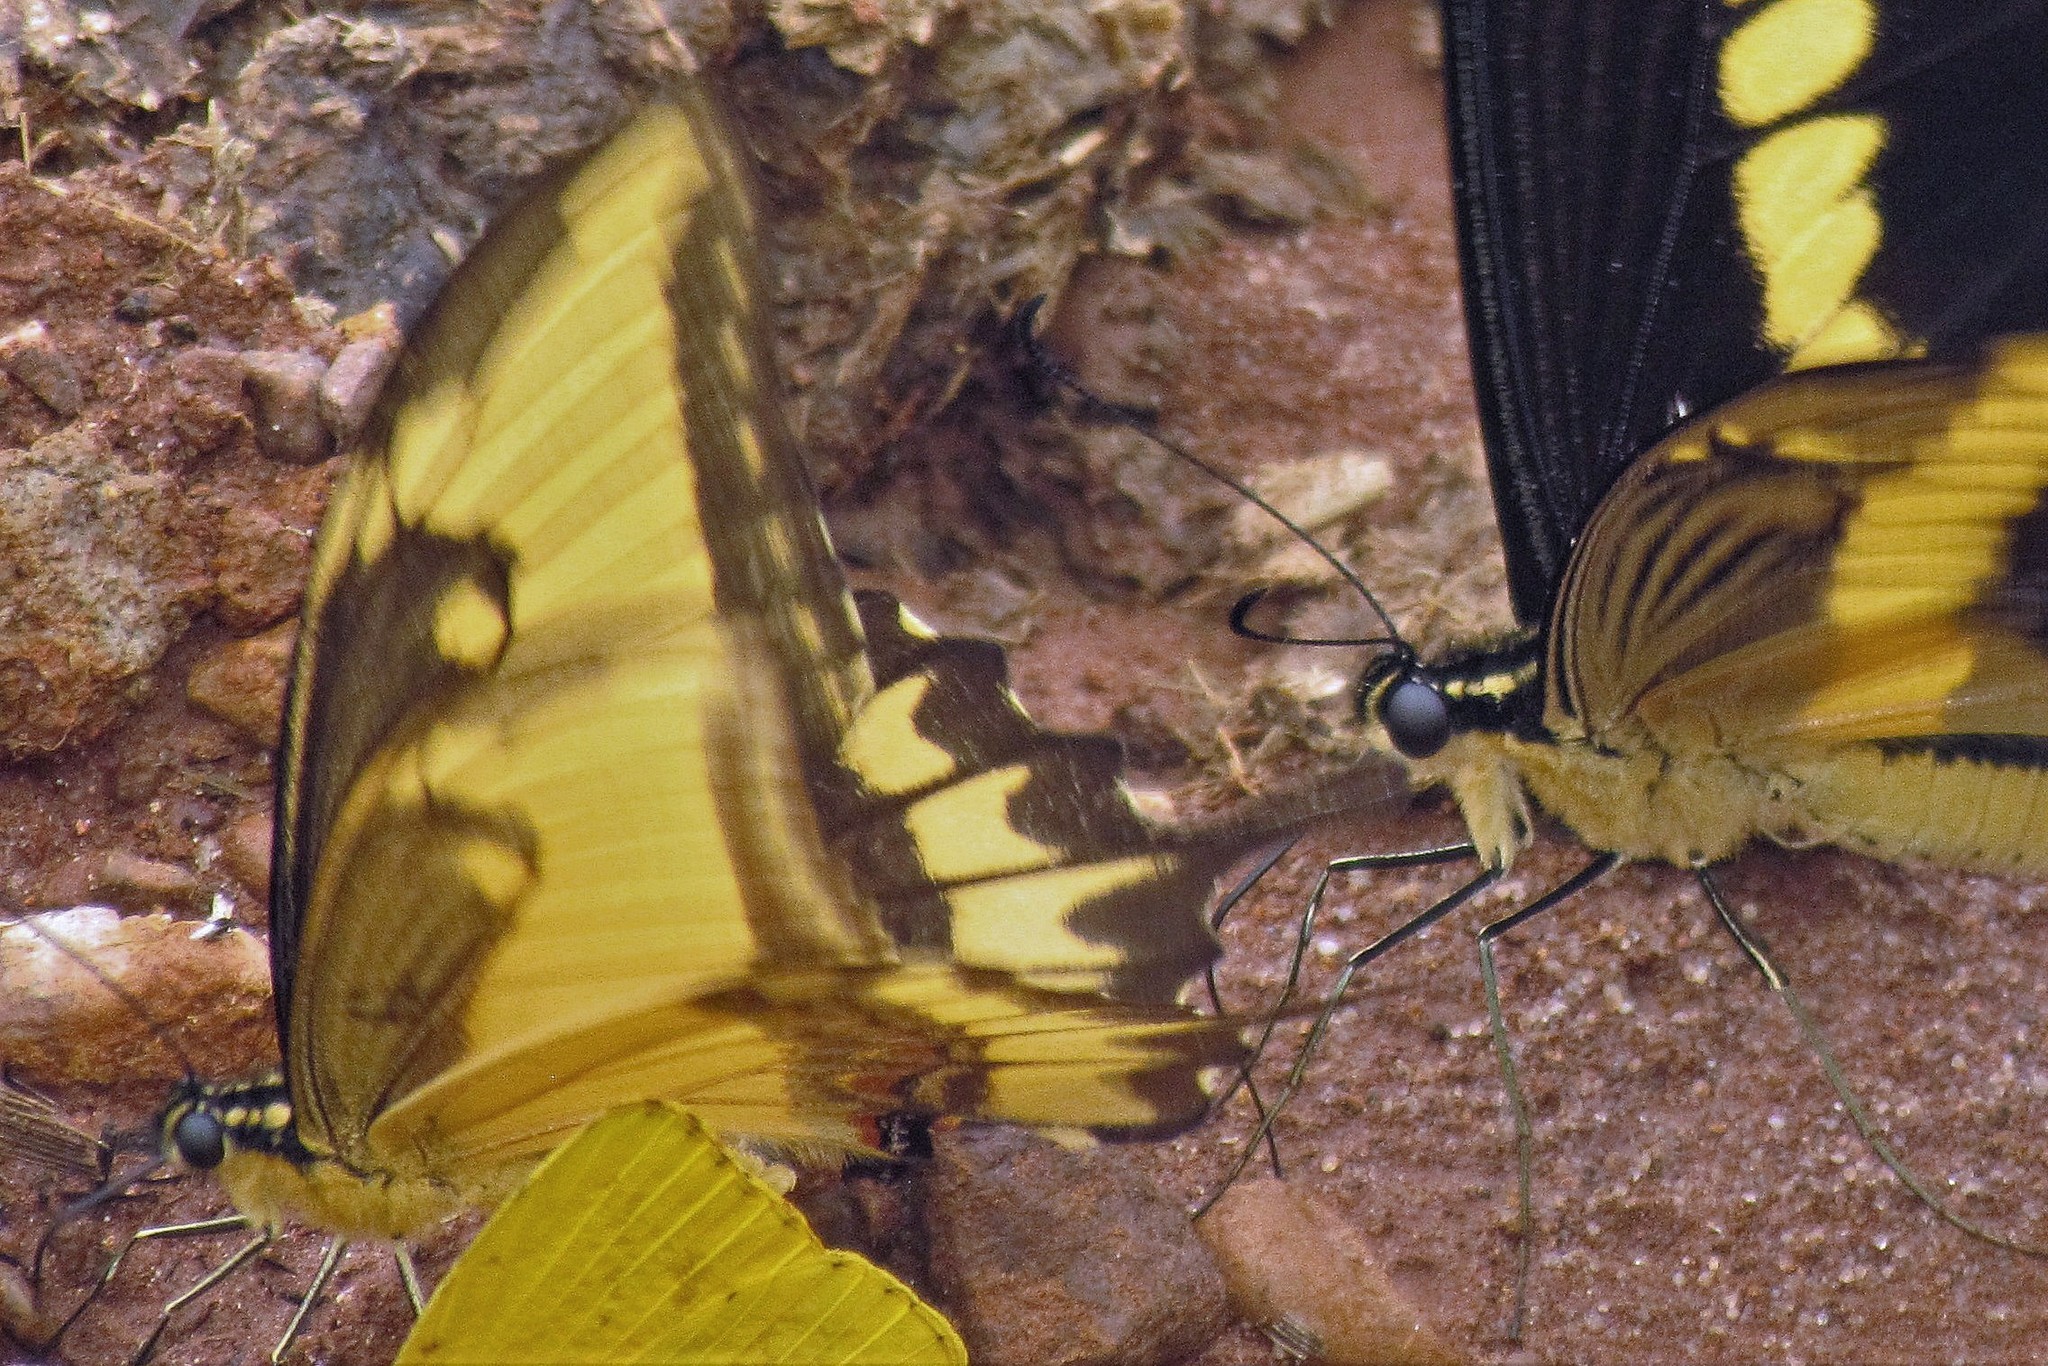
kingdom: Animalia
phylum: Arthropoda
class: Insecta
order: Lepidoptera
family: Papilionidae
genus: Papilio
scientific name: Papilio astyalus
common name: Astyalus swallowtail
